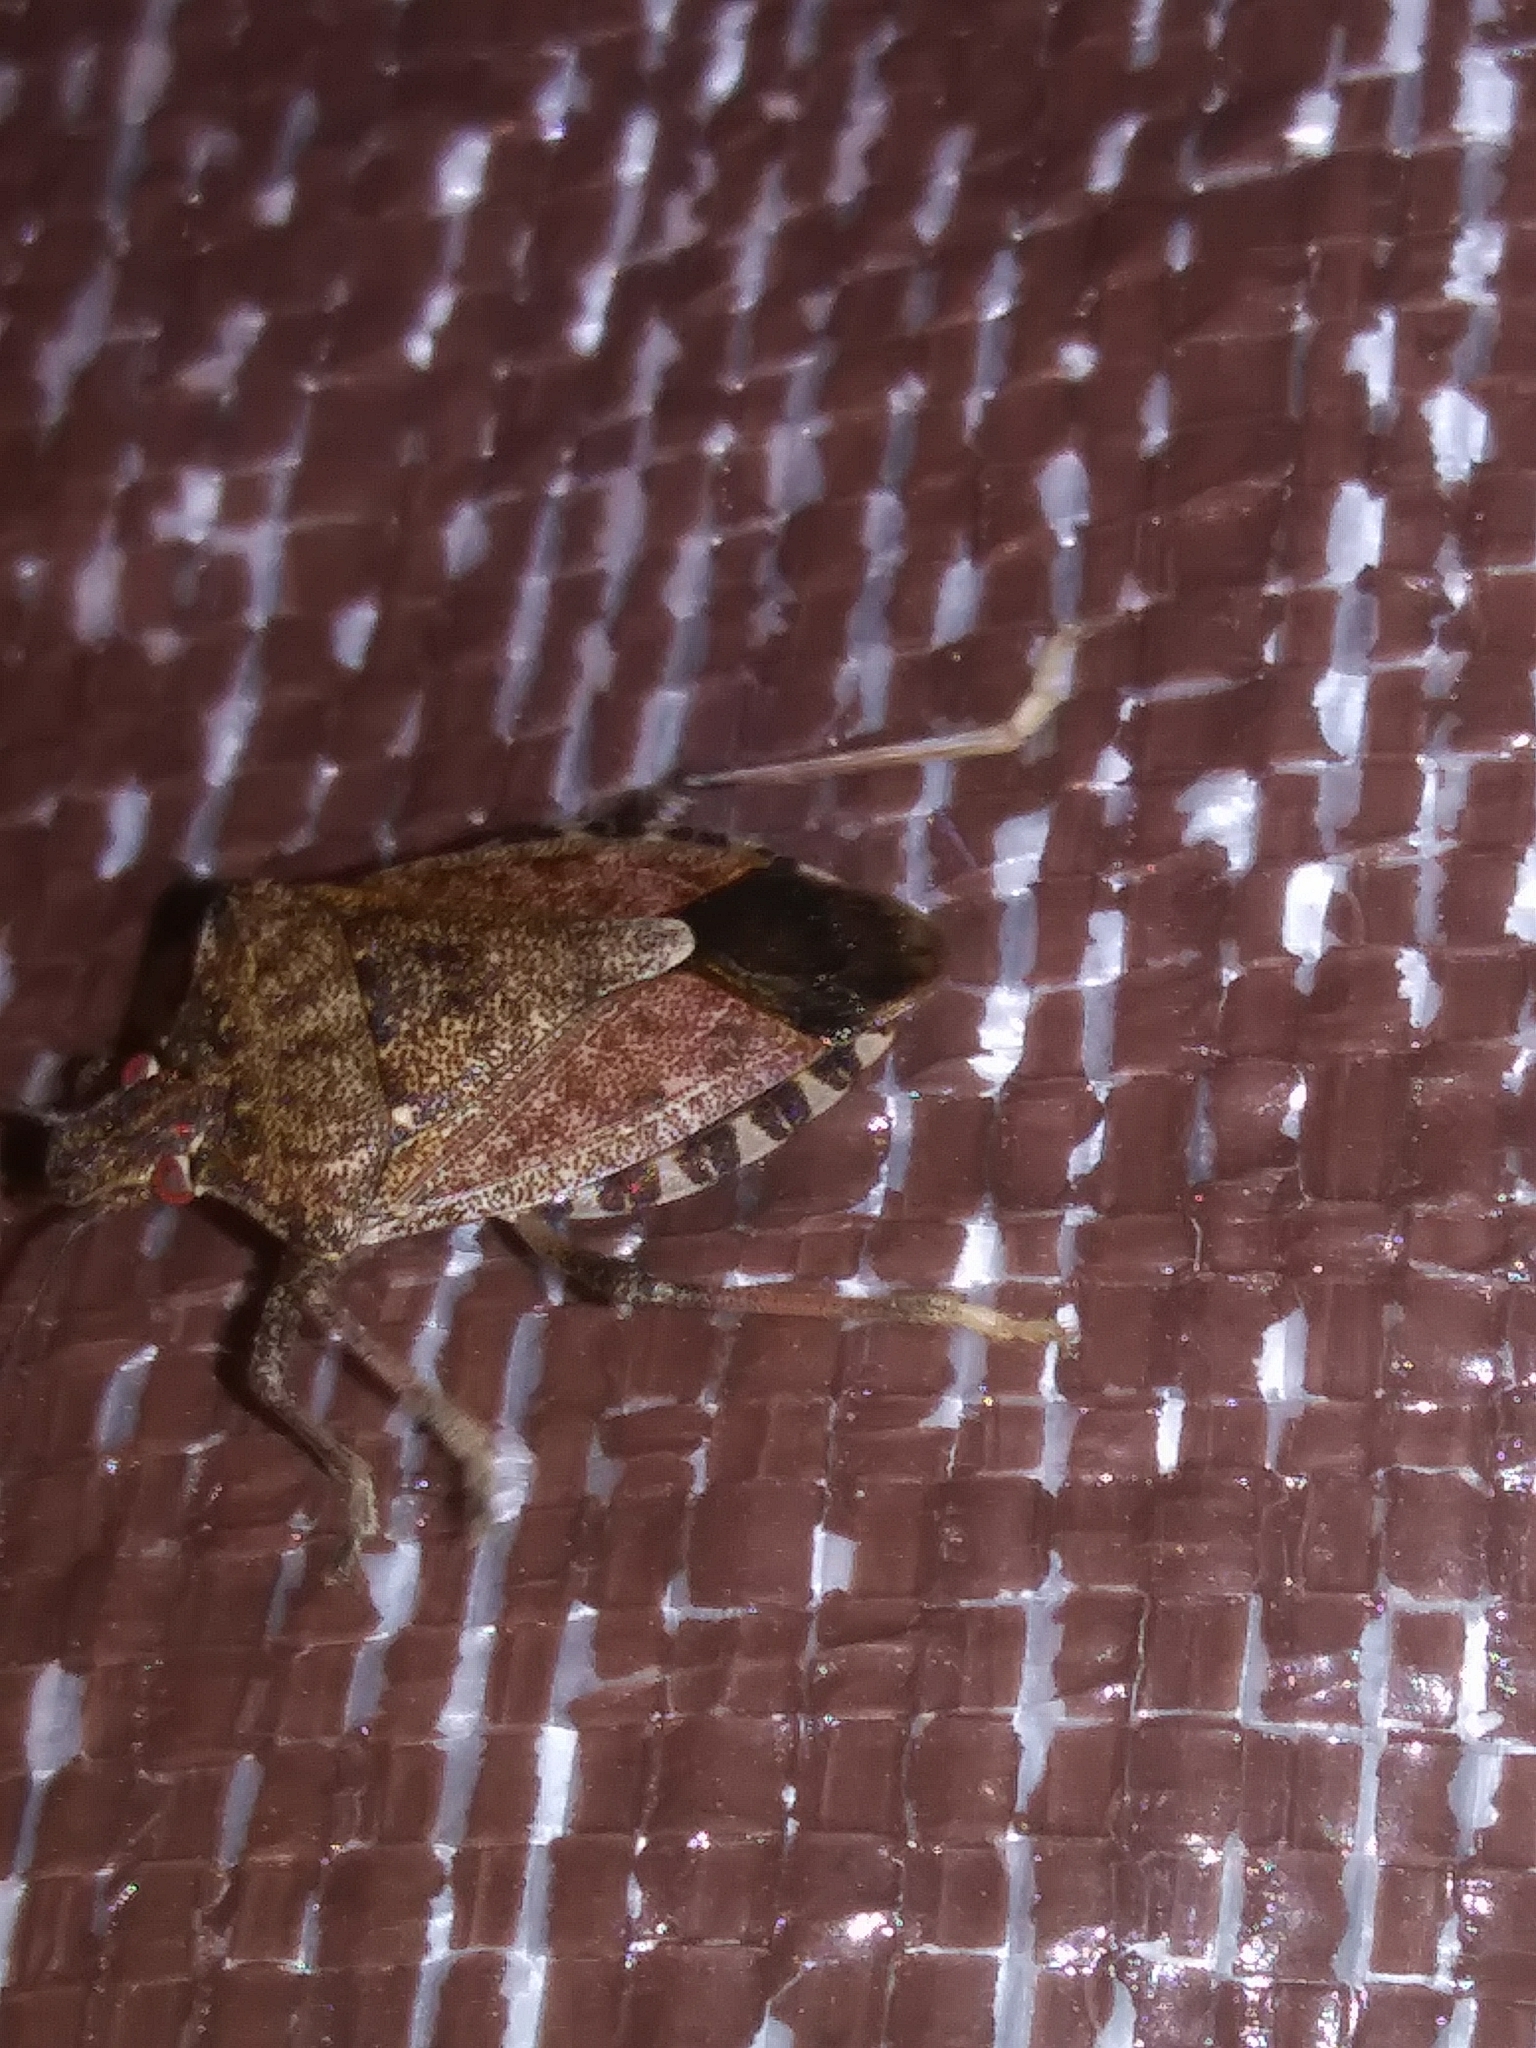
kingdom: Animalia
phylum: Arthropoda
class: Insecta
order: Hemiptera
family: Pentatomidae
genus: Halyomorpha
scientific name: Halyomorpha halys
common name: Brown marmorated stink bug
